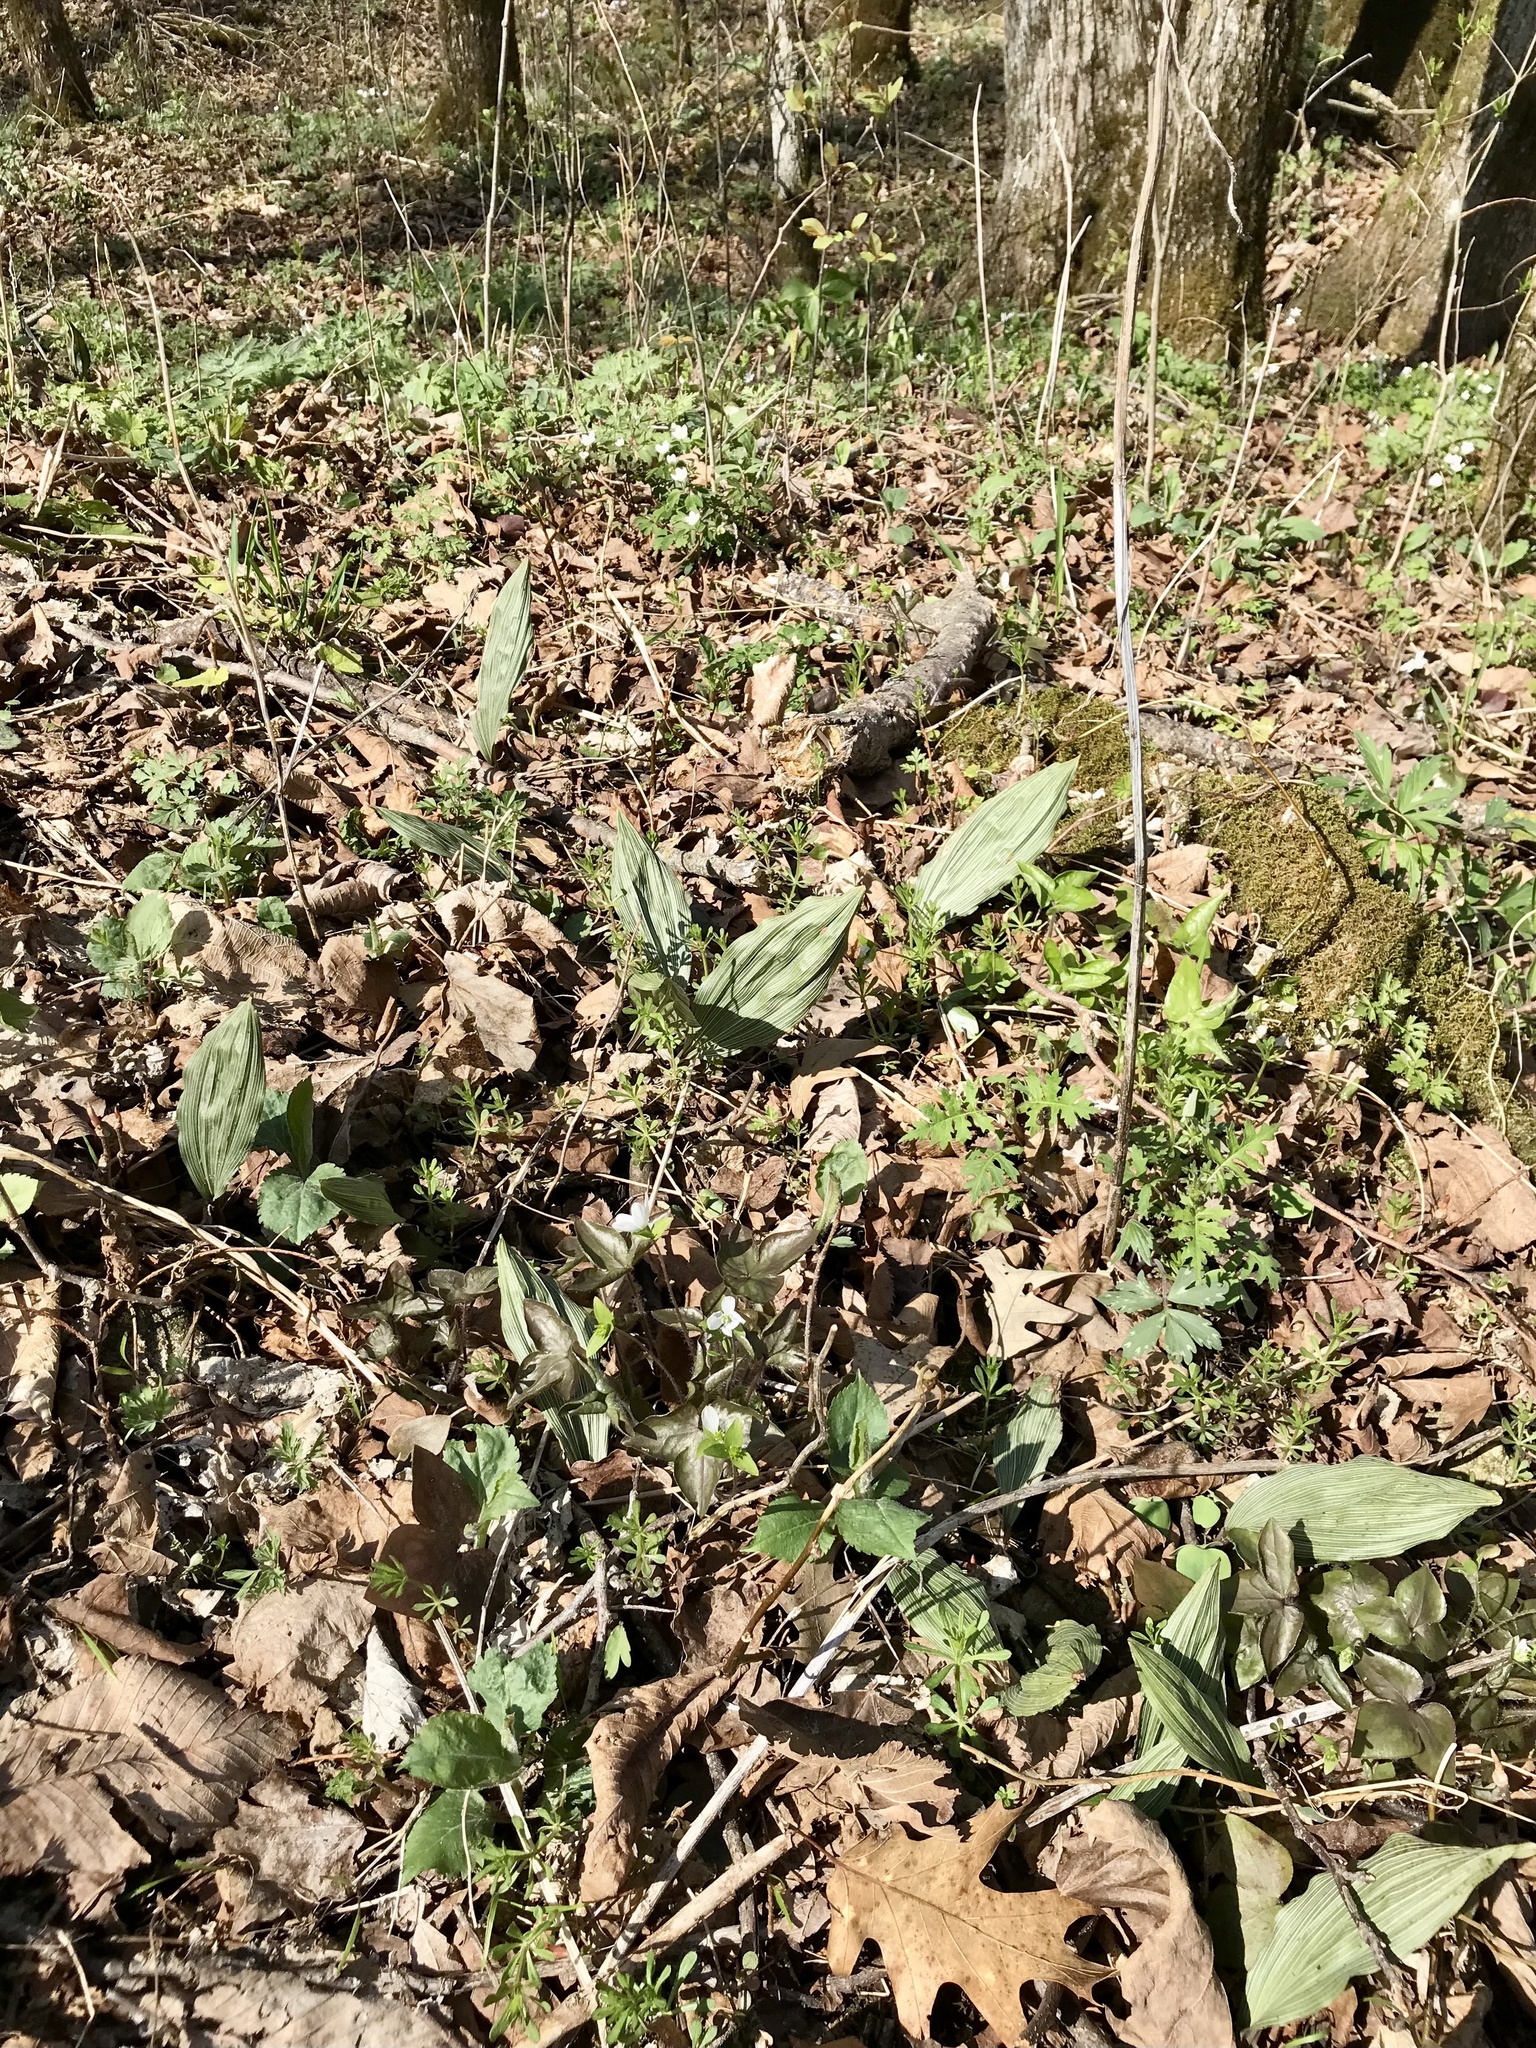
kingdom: Plantae
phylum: Tracheophyta
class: Liliopsida
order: Asparagales
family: Orchidaceae
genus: Aplectrum
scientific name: Aplectrum hyemale
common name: Adam-and-eve
